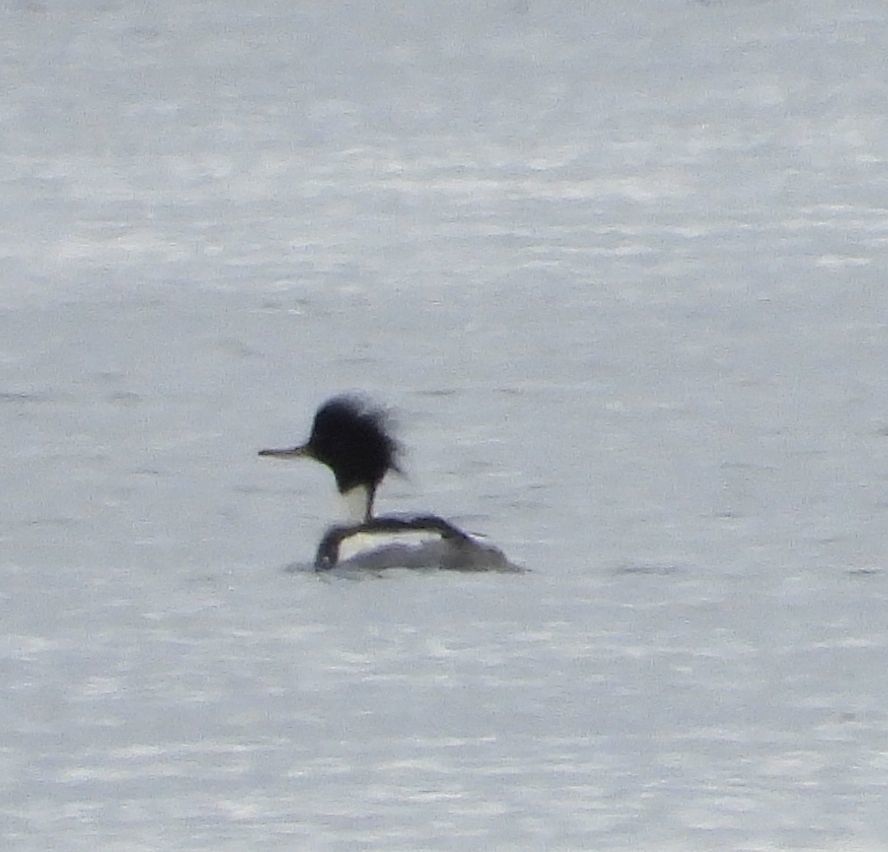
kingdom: Animalia
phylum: Chordata
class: Aves
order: Anseriformes
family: Anatidae
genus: Mergus
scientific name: Mergus serrator
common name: Red-breasted merganser
